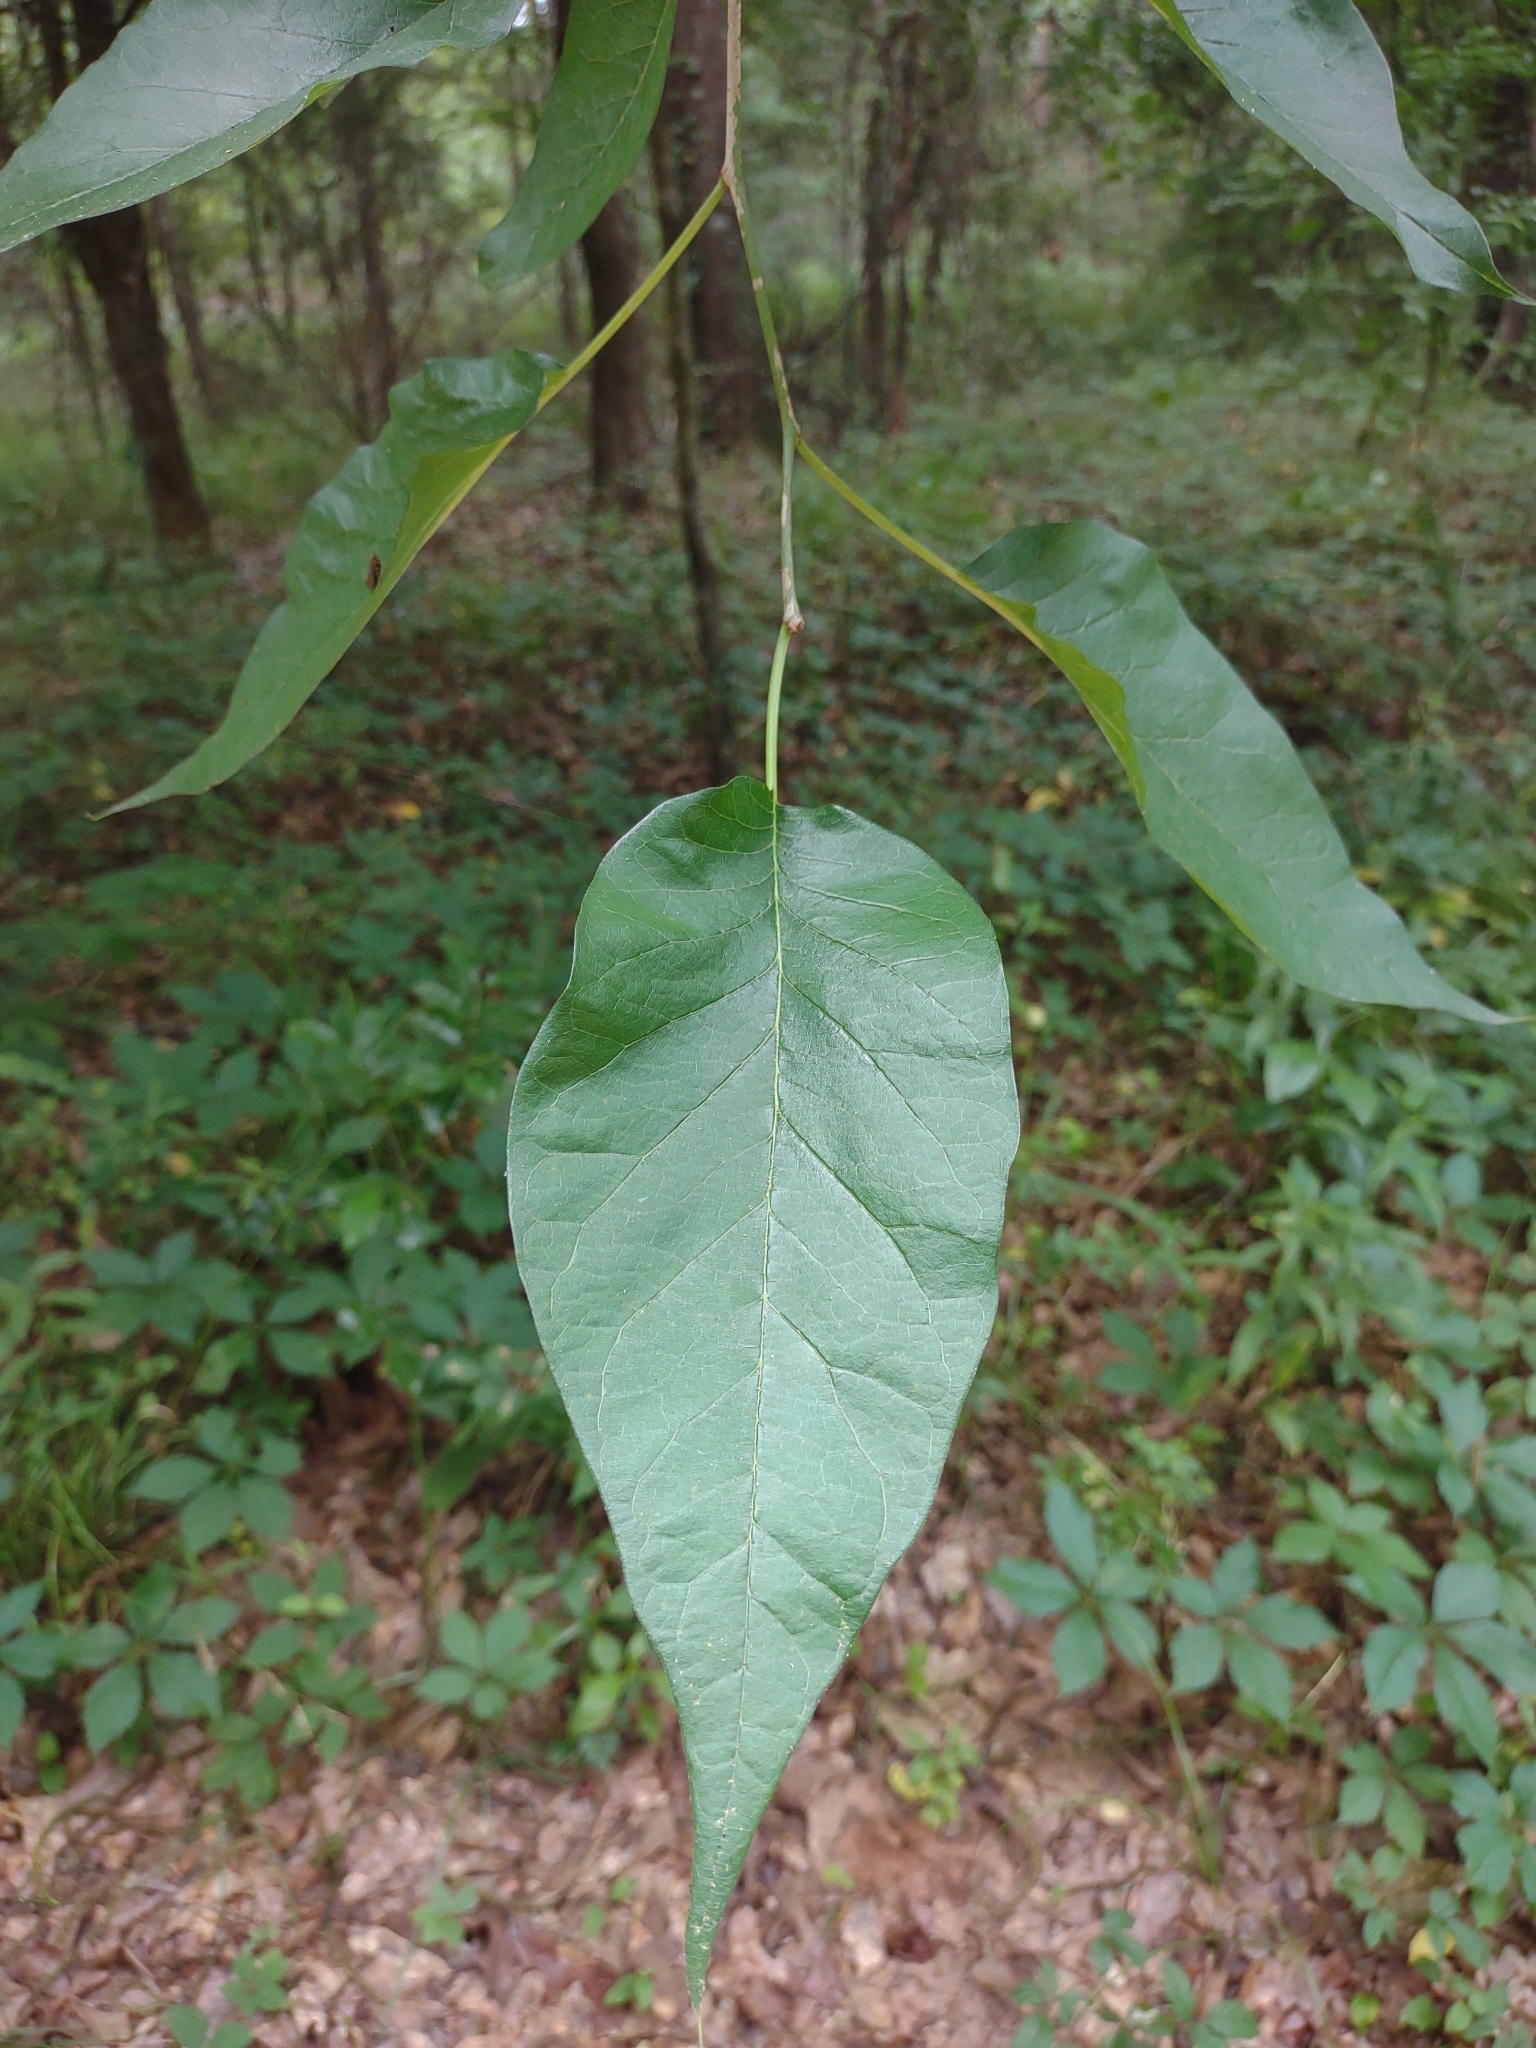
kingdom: Plantae
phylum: Tracheophyta
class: Magnoliopsida
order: Rosales
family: Moraceae
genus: Maclura
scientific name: Maclura pomifera
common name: Osage-orange
